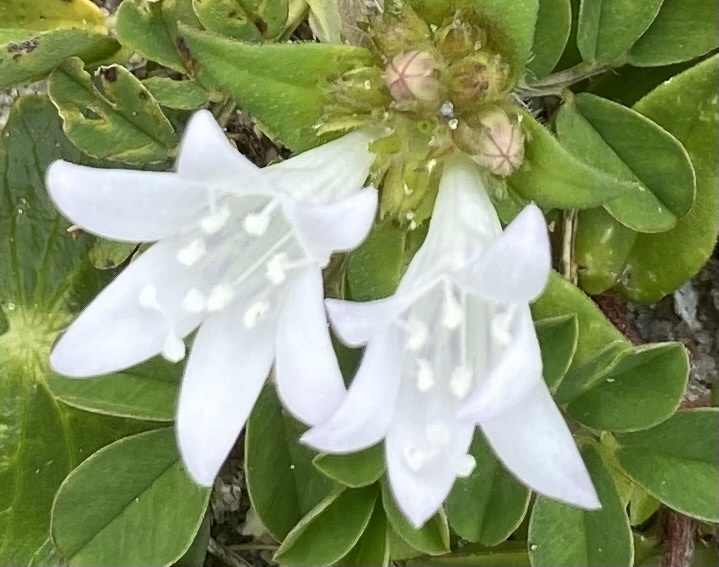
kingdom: Plantae
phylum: Tracheophyta
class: Magnoliopsida
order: Gentianales
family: Rubiaceae
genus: Richardia
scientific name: Richardia grandiflora
